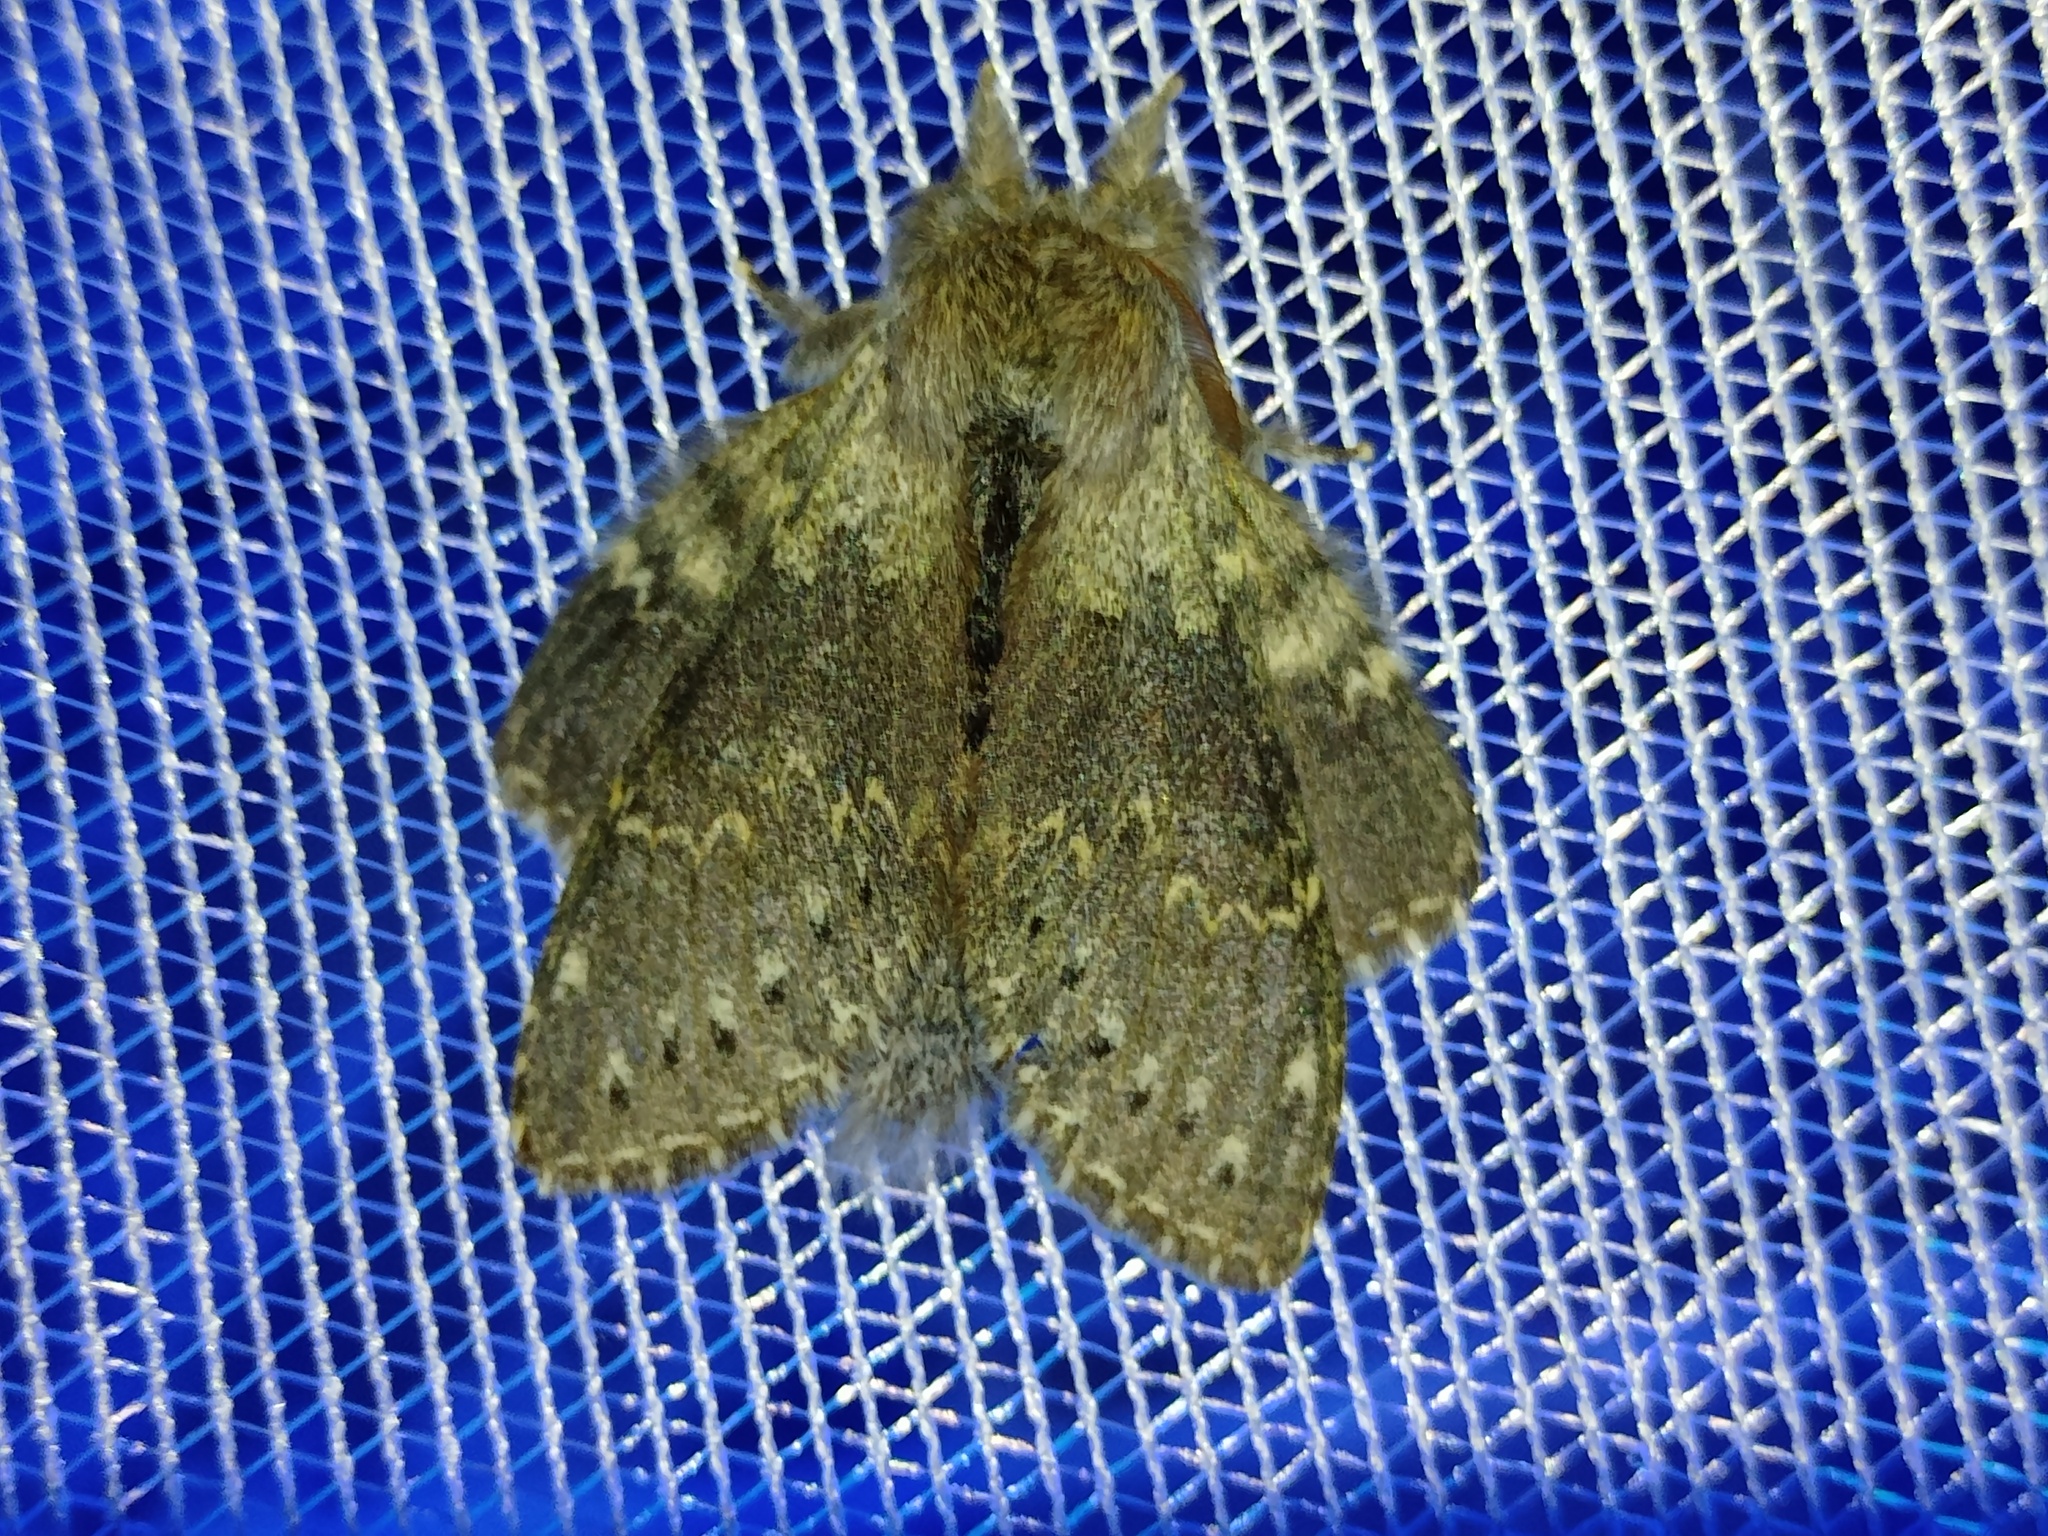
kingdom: Animalia
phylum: Arthropoda
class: Insecta
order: Lepidoptera
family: Notodontidae
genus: Stauropus
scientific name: Stauropus fagi
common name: Lobster moth
